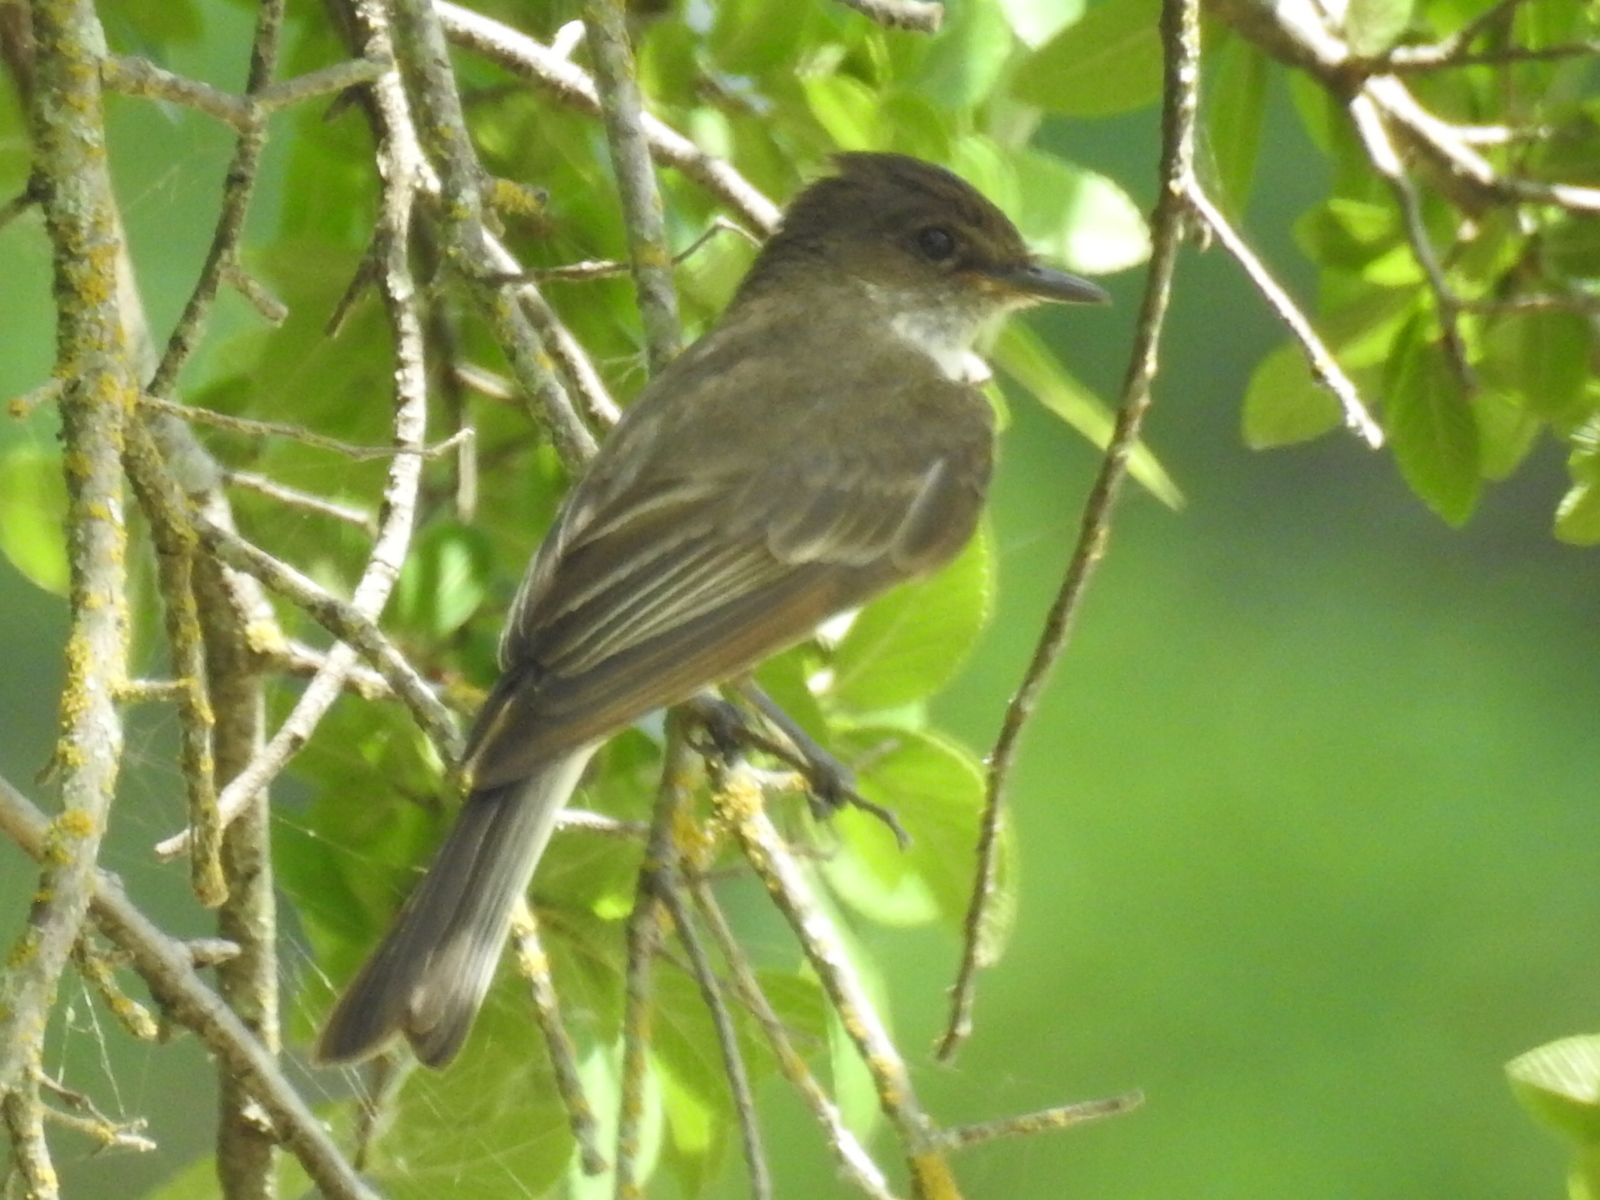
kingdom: Animalia
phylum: Chordata
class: Aves
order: Passeriformes
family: Tyrannidae
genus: Sayornis
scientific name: Sayornis phoebe
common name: Eastern phoebe
